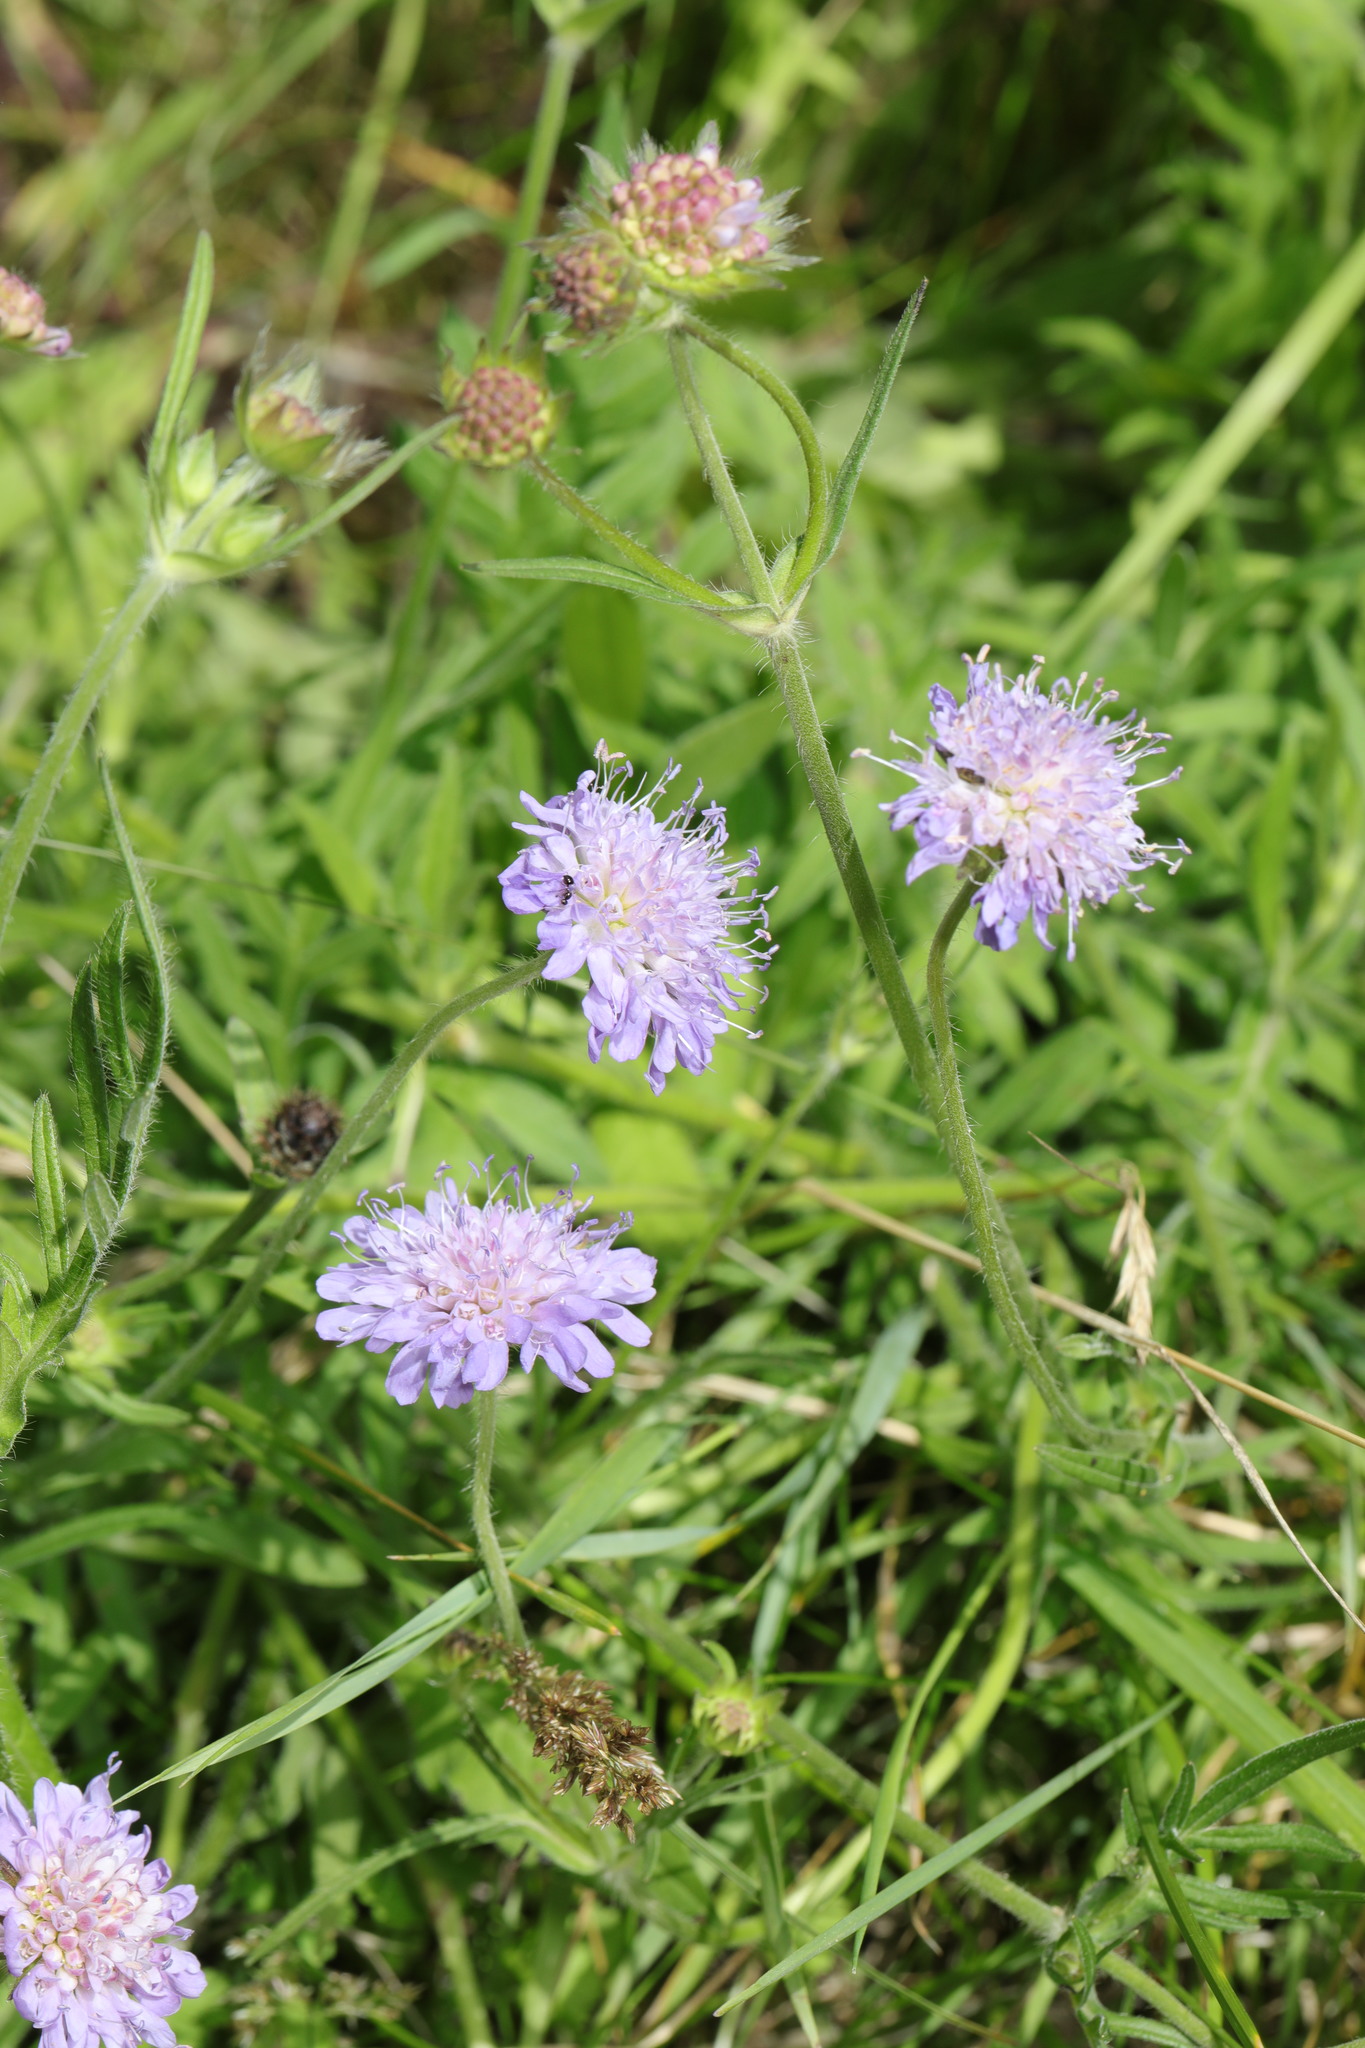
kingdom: Plantae
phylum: Tracheophyta
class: Magnoliopsida
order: Dipsacales
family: Caprifoliaceae
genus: Knautia
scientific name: Knautia arvensis
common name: Field scabiosa
